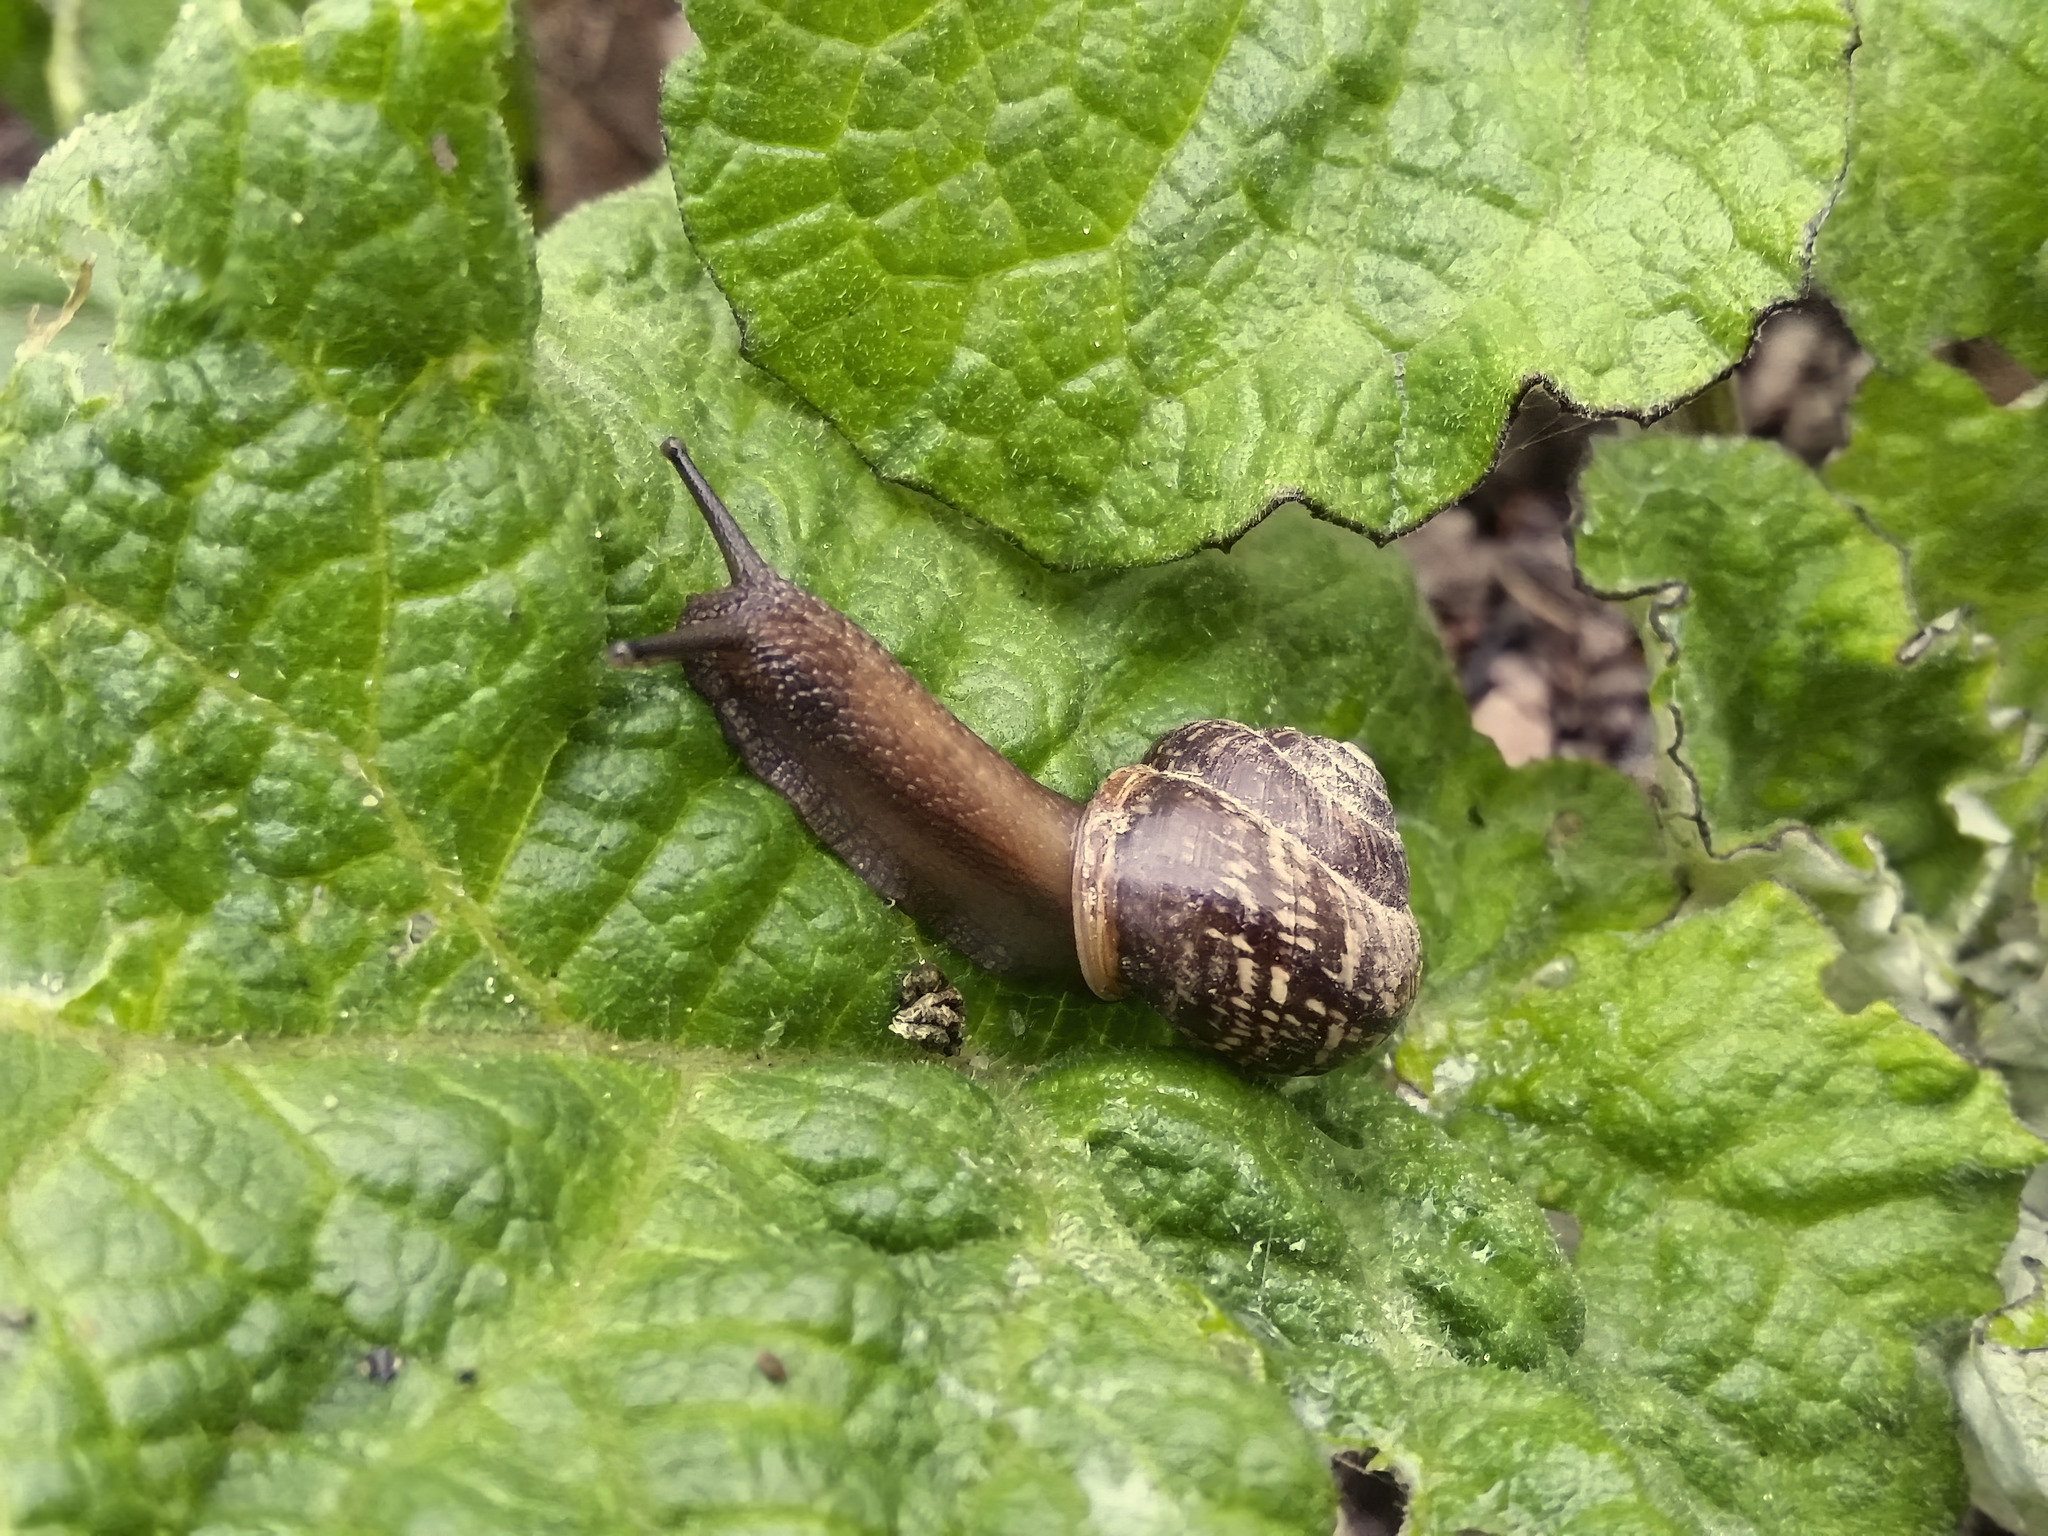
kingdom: Animalia
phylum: Mollusca
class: Gastropoda
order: Stylommatophora
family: Helicidae
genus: Arianta
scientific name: Arianta arbustorum
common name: Copse snail
